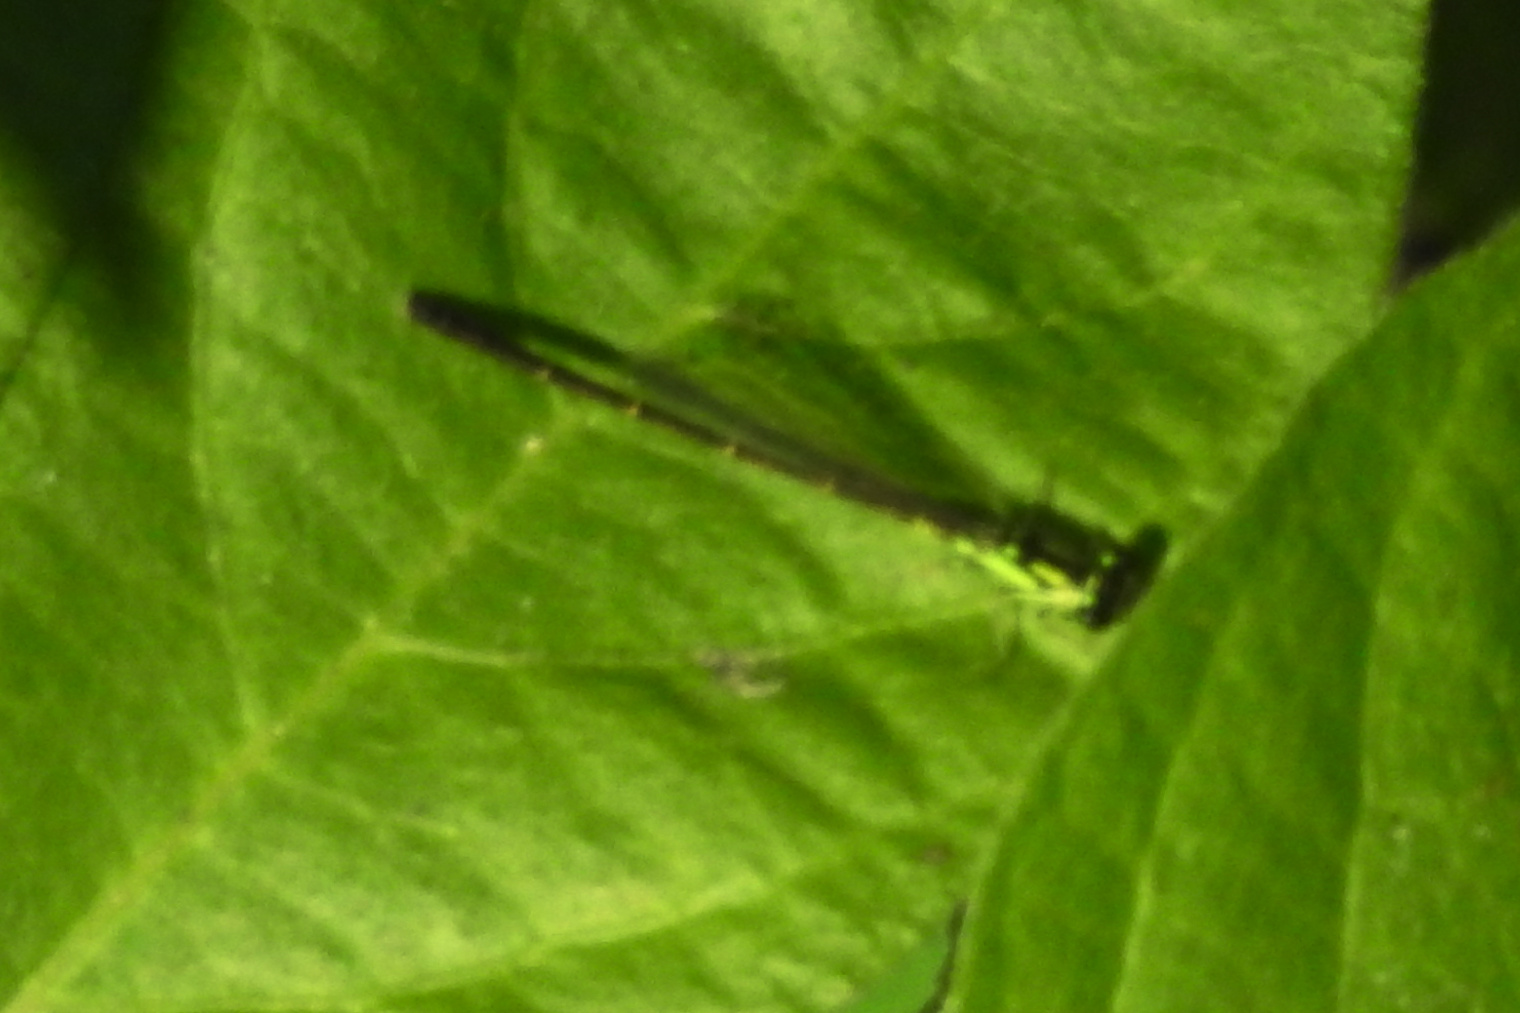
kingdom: Animalia
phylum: Arthropoda
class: Insecta
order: Odonata
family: Coenagrionidae
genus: Ischnura
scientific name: Ischnura posita
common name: Fragile forktail
